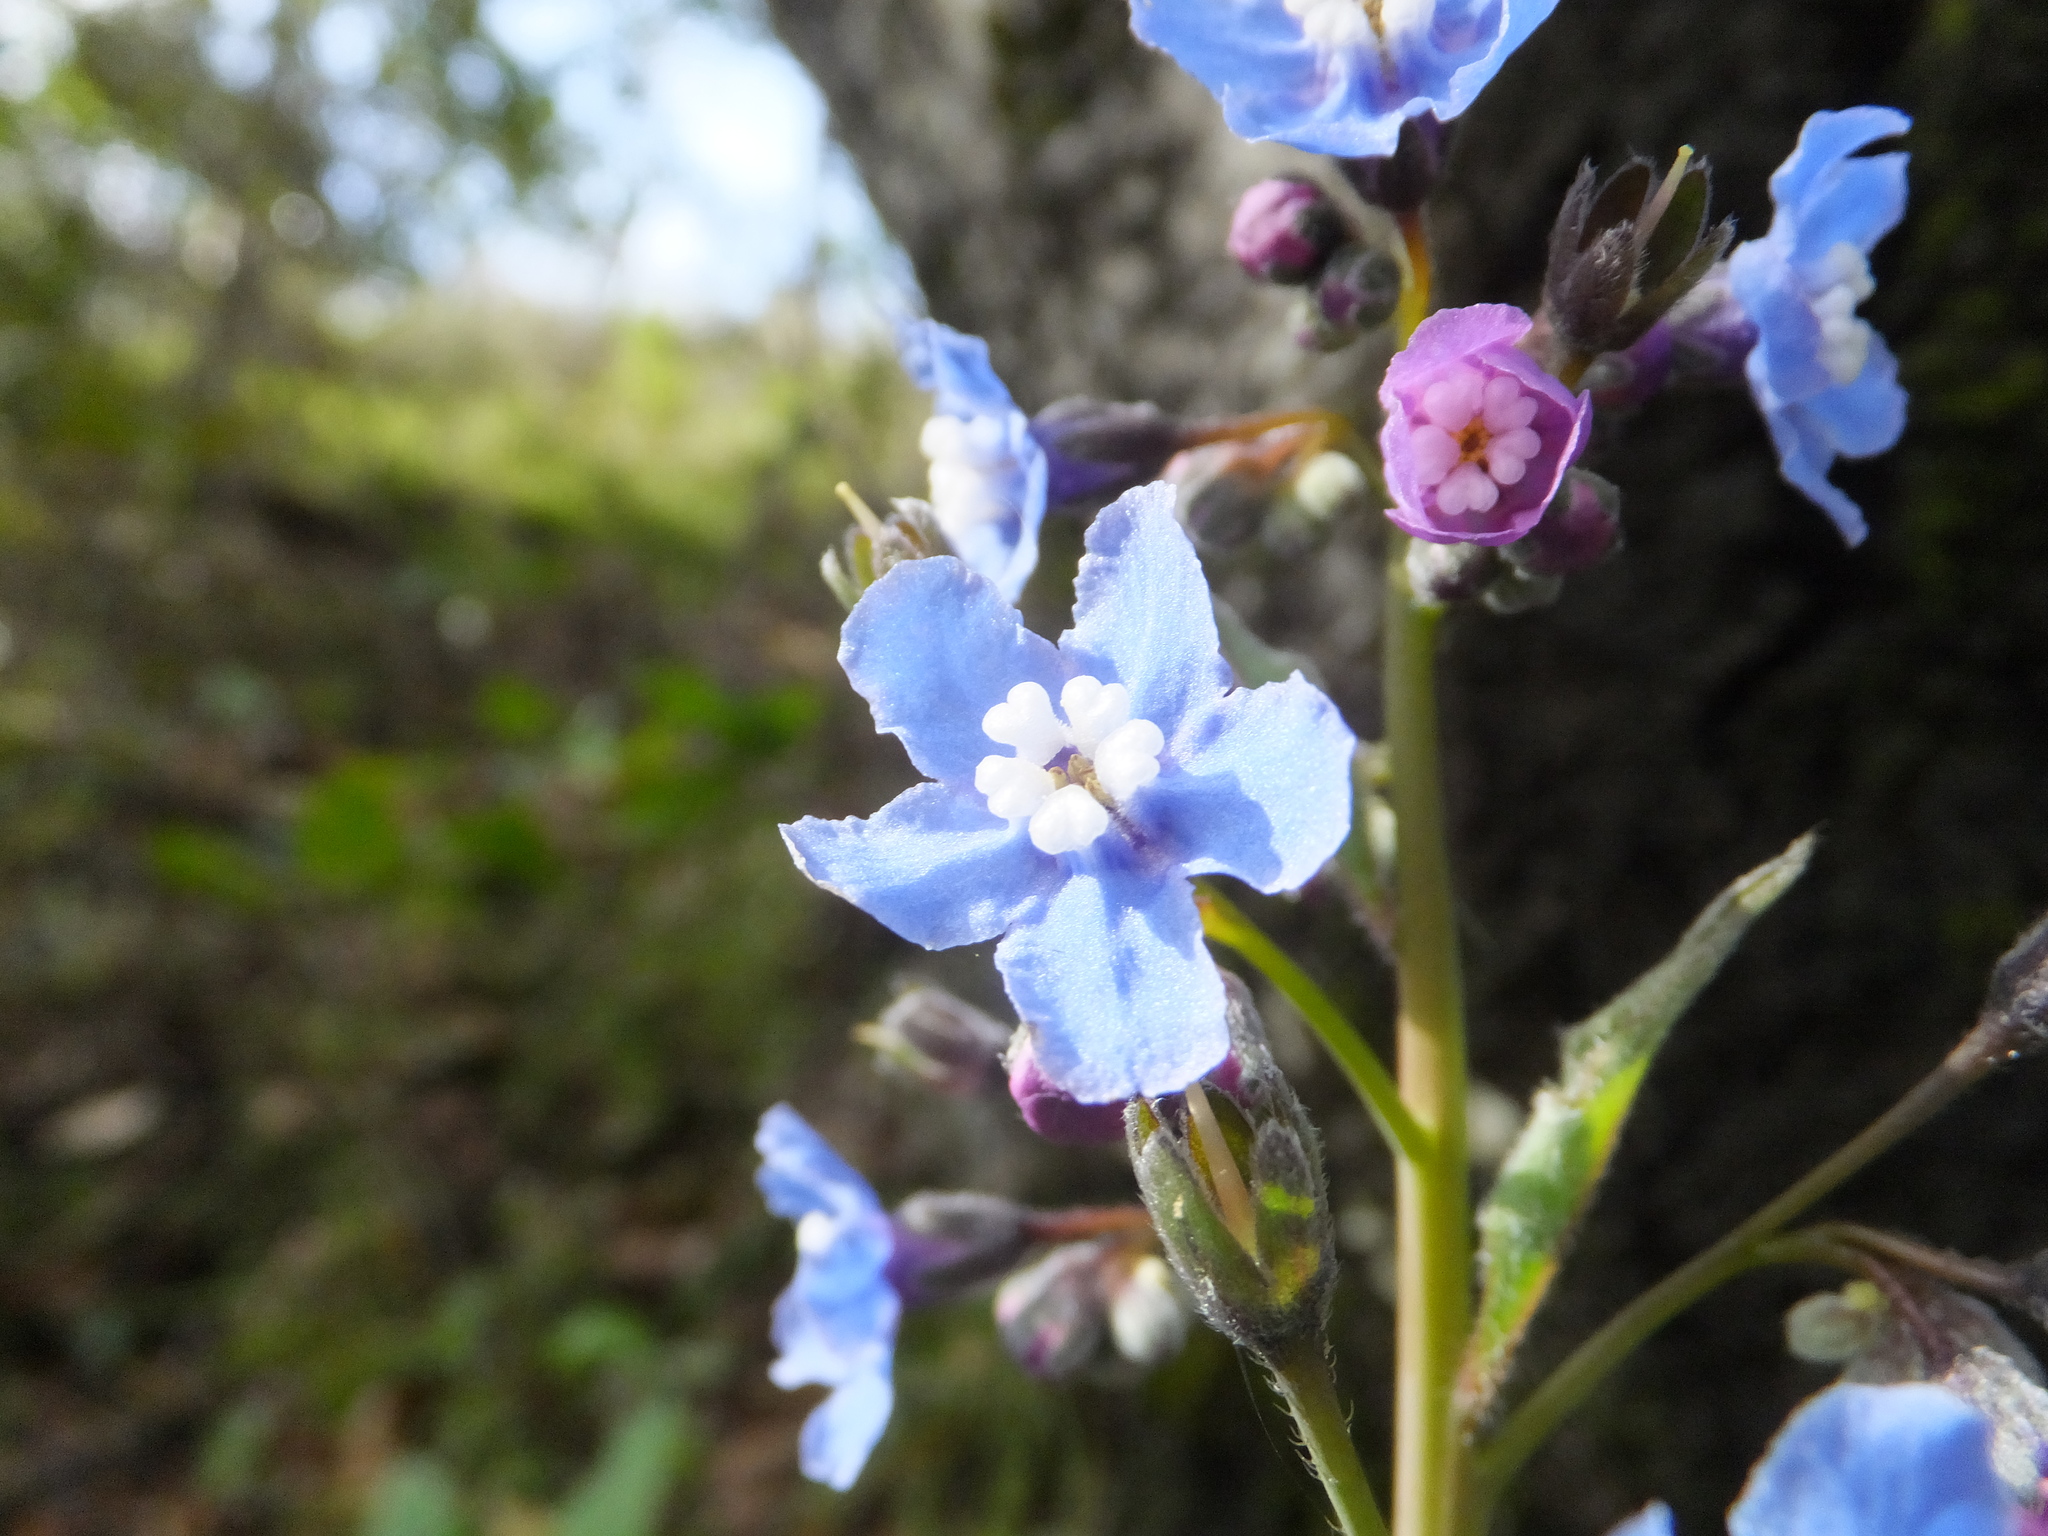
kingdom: Plantae
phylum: Tracheophyta
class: Magnoliopsida
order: Boraginales
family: Boraginaceae
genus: Adelinia
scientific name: Adelinia grande
